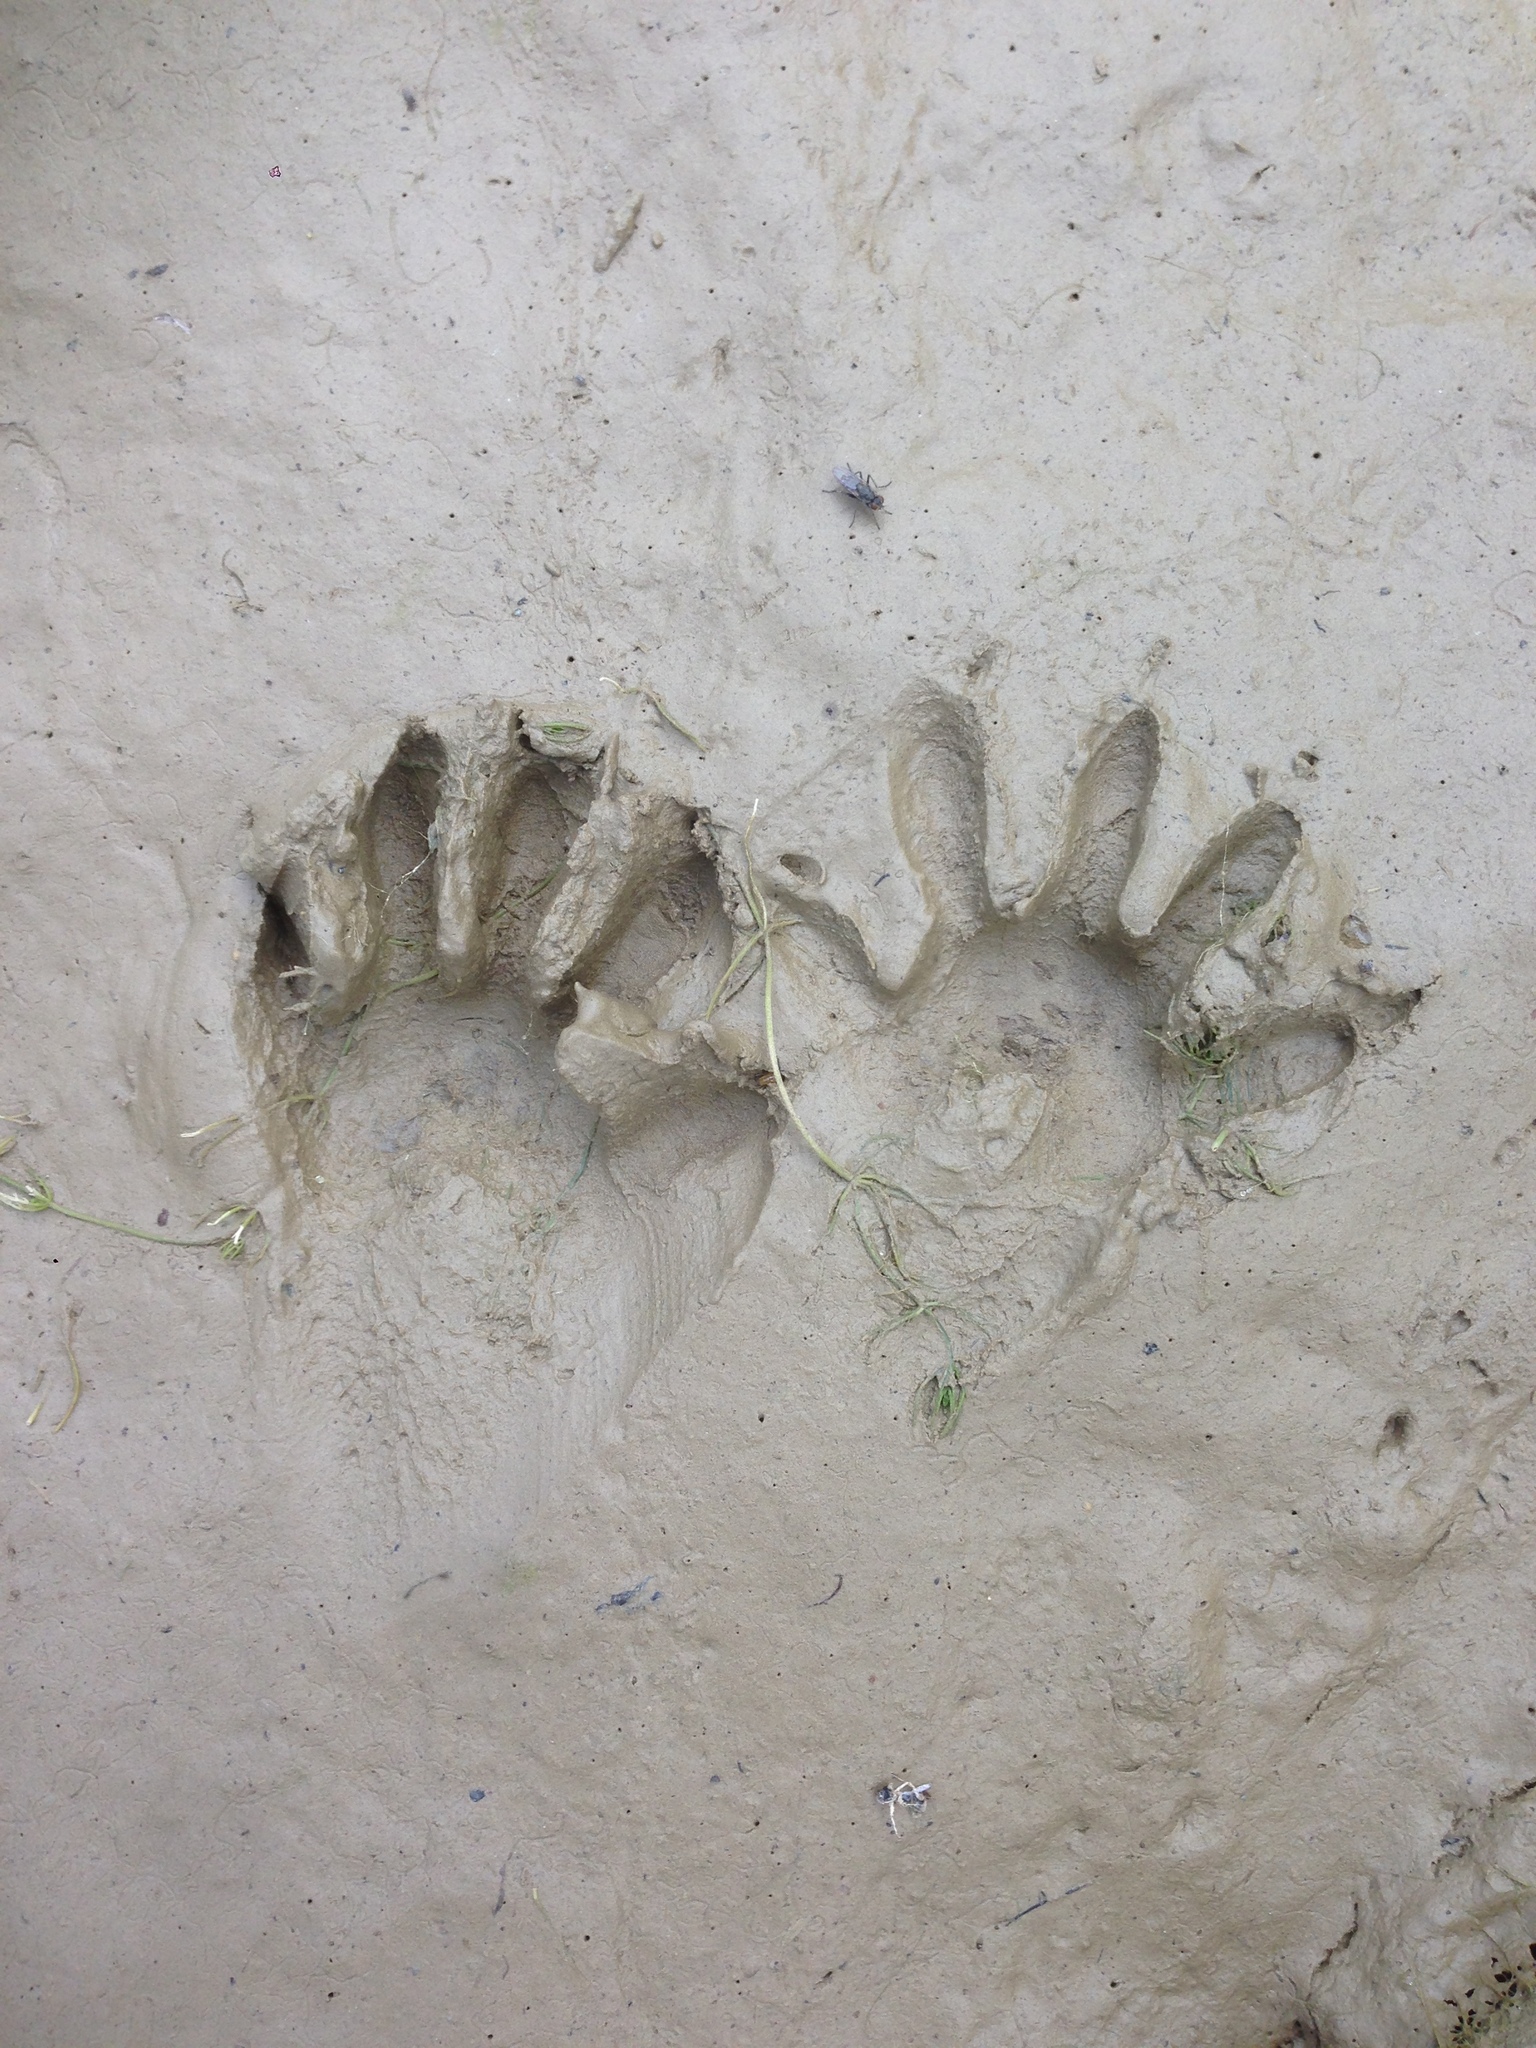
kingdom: Animalia
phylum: Chordata
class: Mammalia
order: Carnivora
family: Procyonidae
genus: Procyon
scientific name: Procyon lotor
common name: Raccoon
